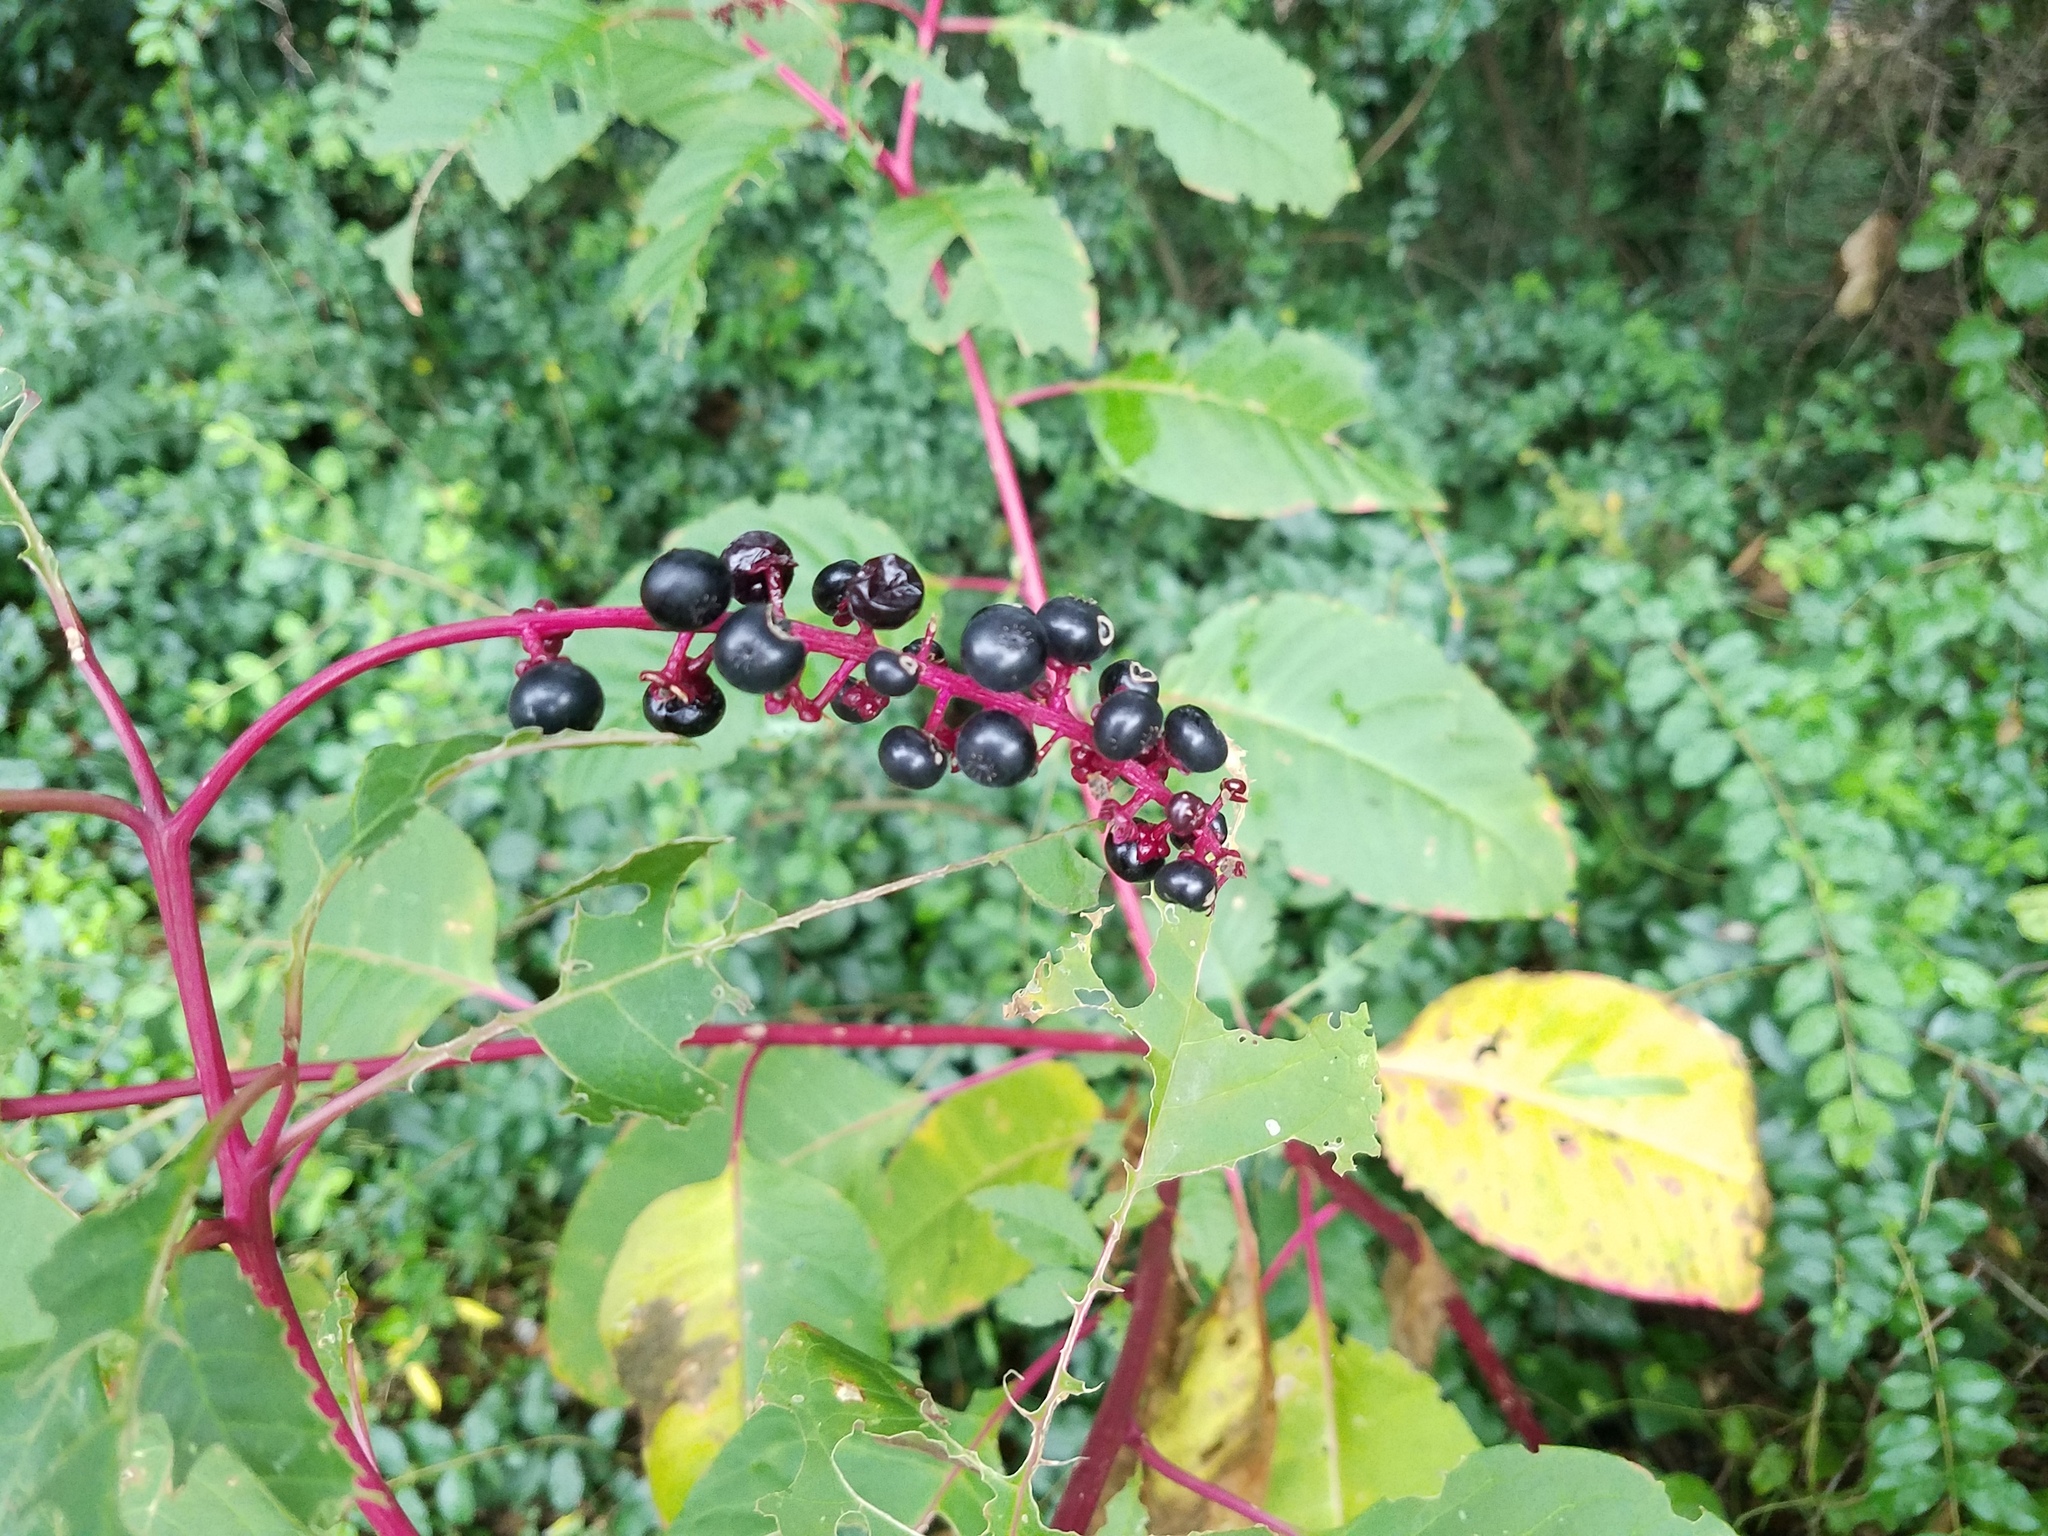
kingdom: Plantae
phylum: Tracheophyta
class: Magnoliopsida
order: Caryophyllales
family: Phytolaccaceae
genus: Phytolacca
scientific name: Phytolacca americana
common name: American pokeweed
